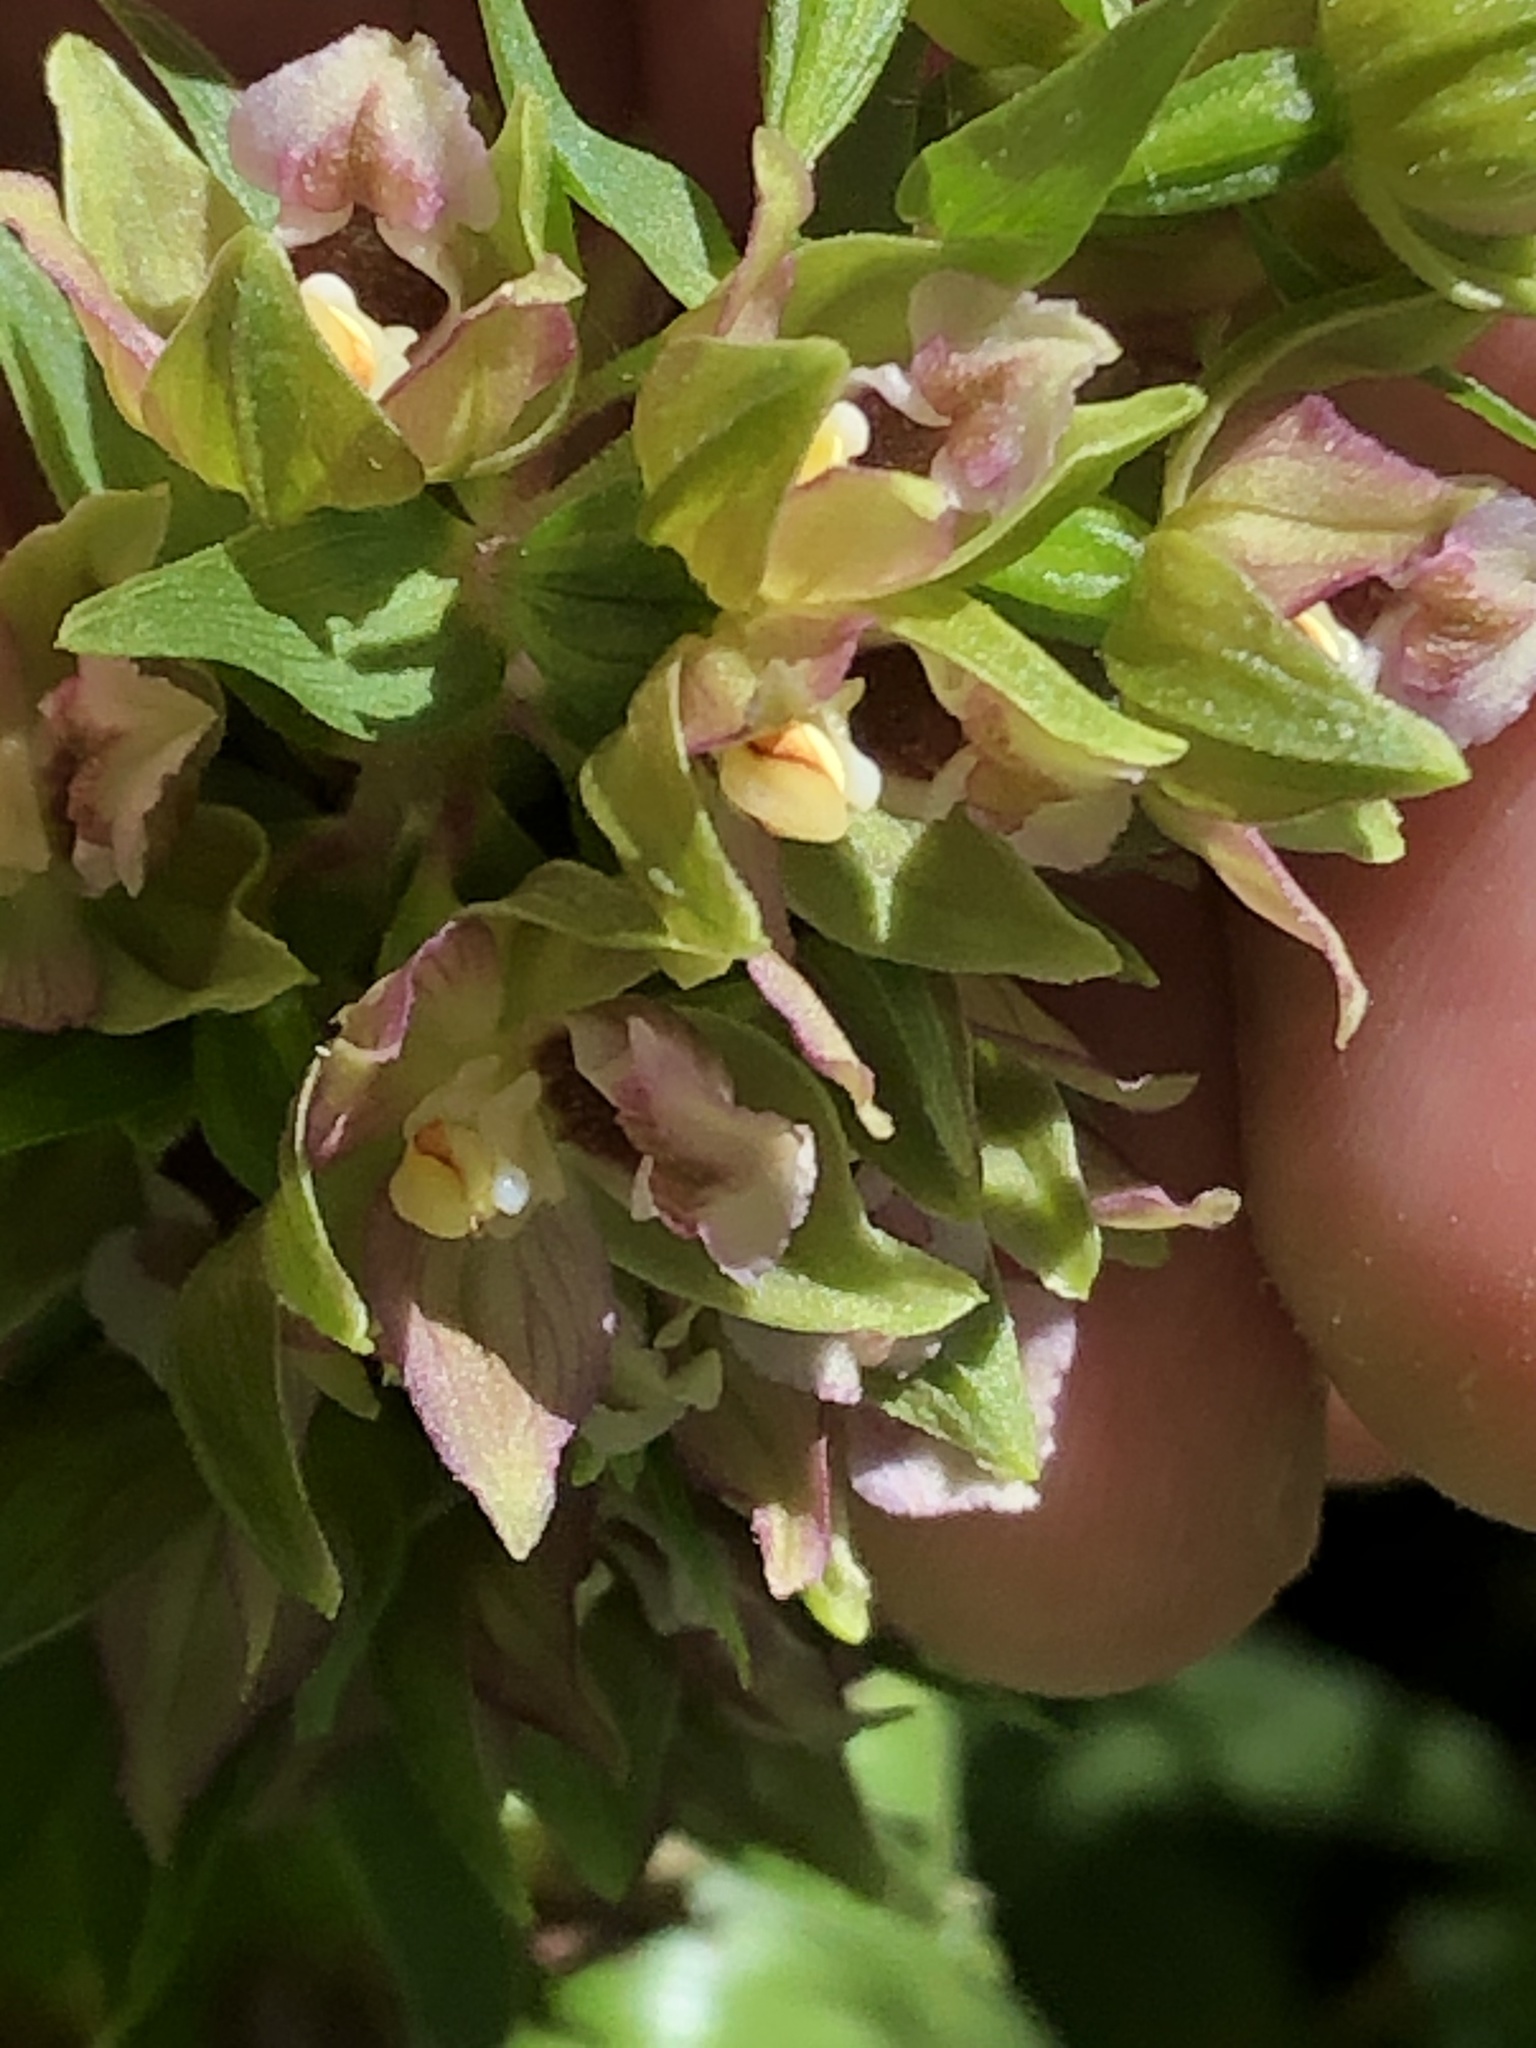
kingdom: Plantae
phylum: Tracheophyta
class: Liliopsida
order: Asparagales
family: Orchidaceae
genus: Epipactis
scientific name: Epipactis helleborine
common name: Broad-leaved helleborine
